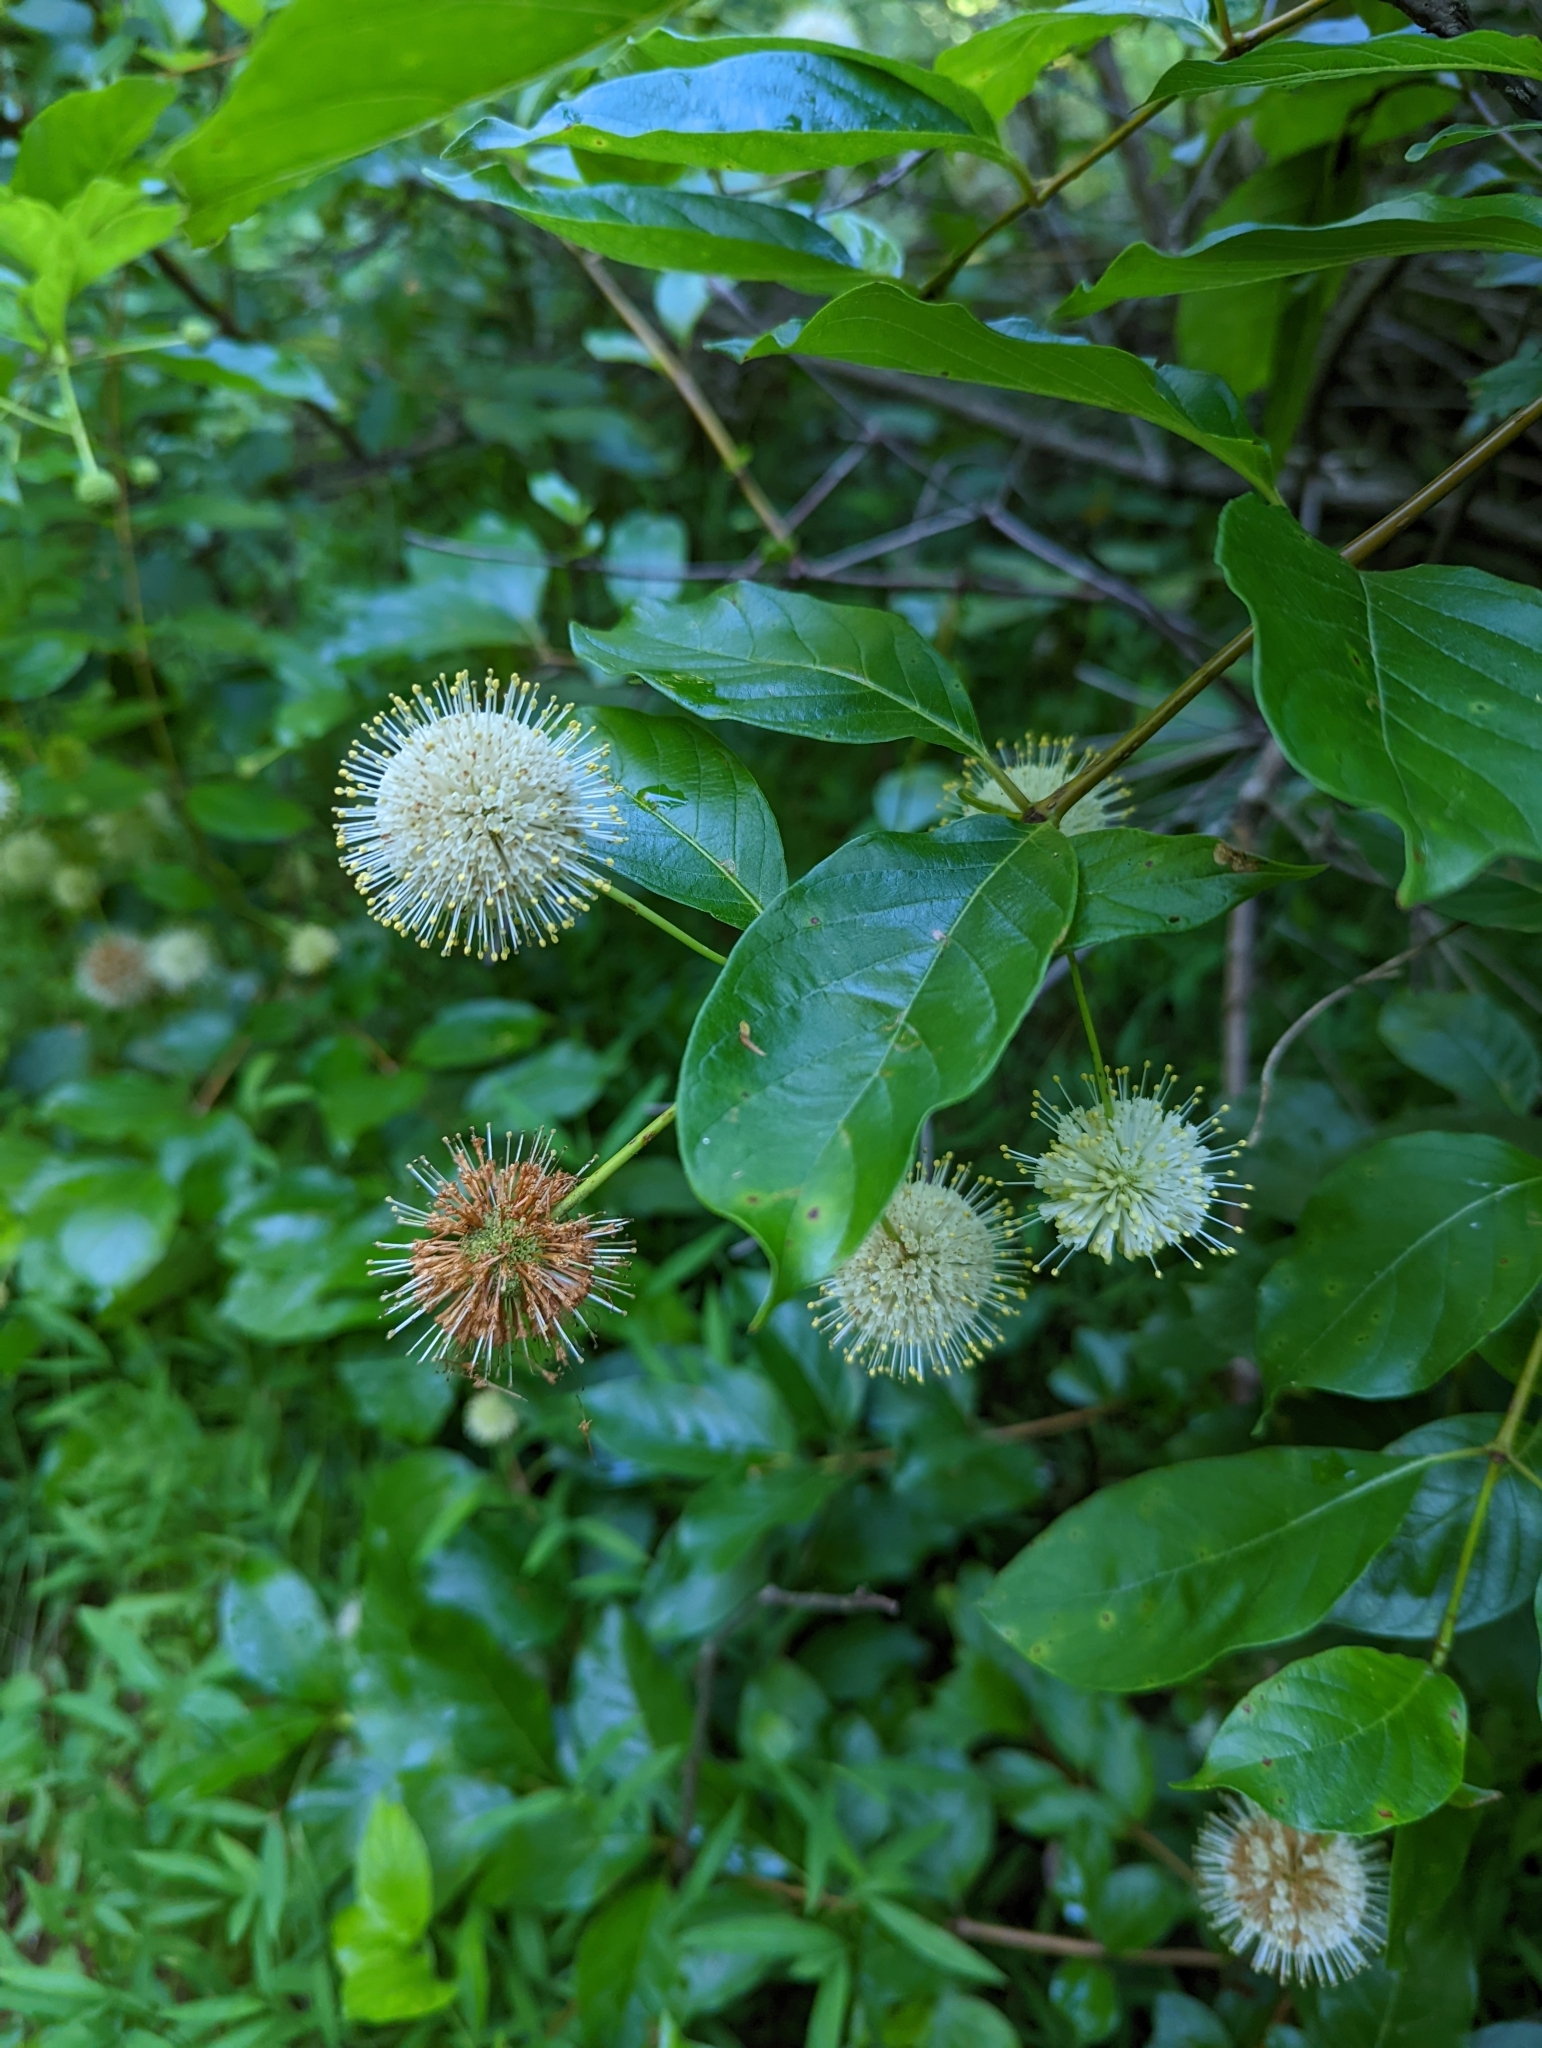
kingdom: Plantae
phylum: Tracheophyta
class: Magnoliopsida
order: Gentianales
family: Rubiaceae
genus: Cephalanthus
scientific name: Cephalanthus occidentalis
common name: Button-willow
